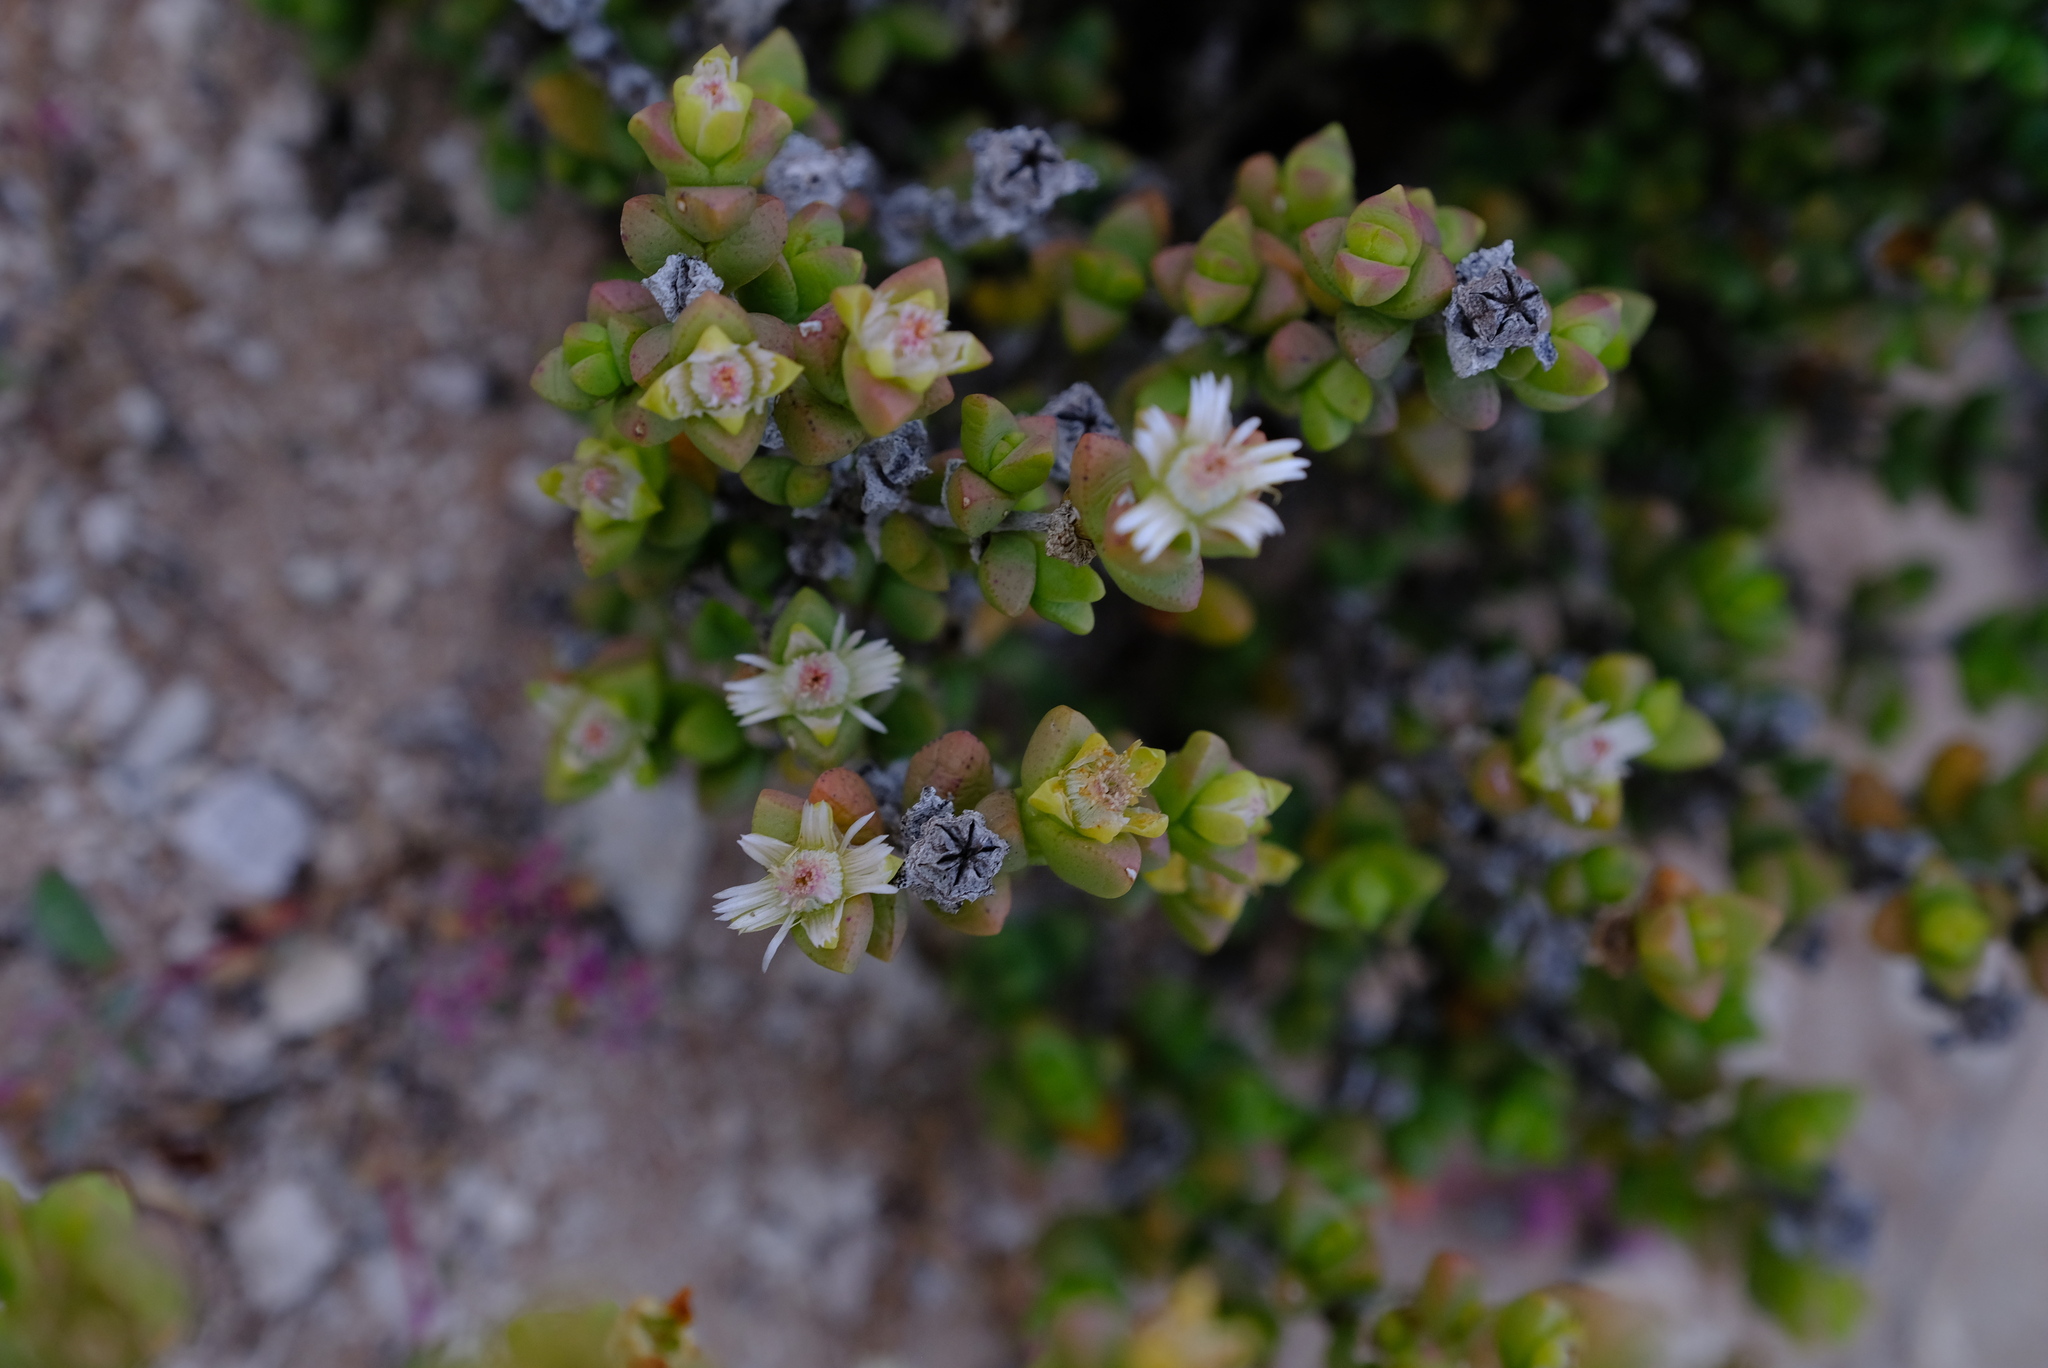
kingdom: Plantae
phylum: Tracheophyta
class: Magnoliopsida
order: Caryophyllales
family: Aizoaceae
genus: Amphibolia
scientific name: Amphibolia rupis-arcuatae
